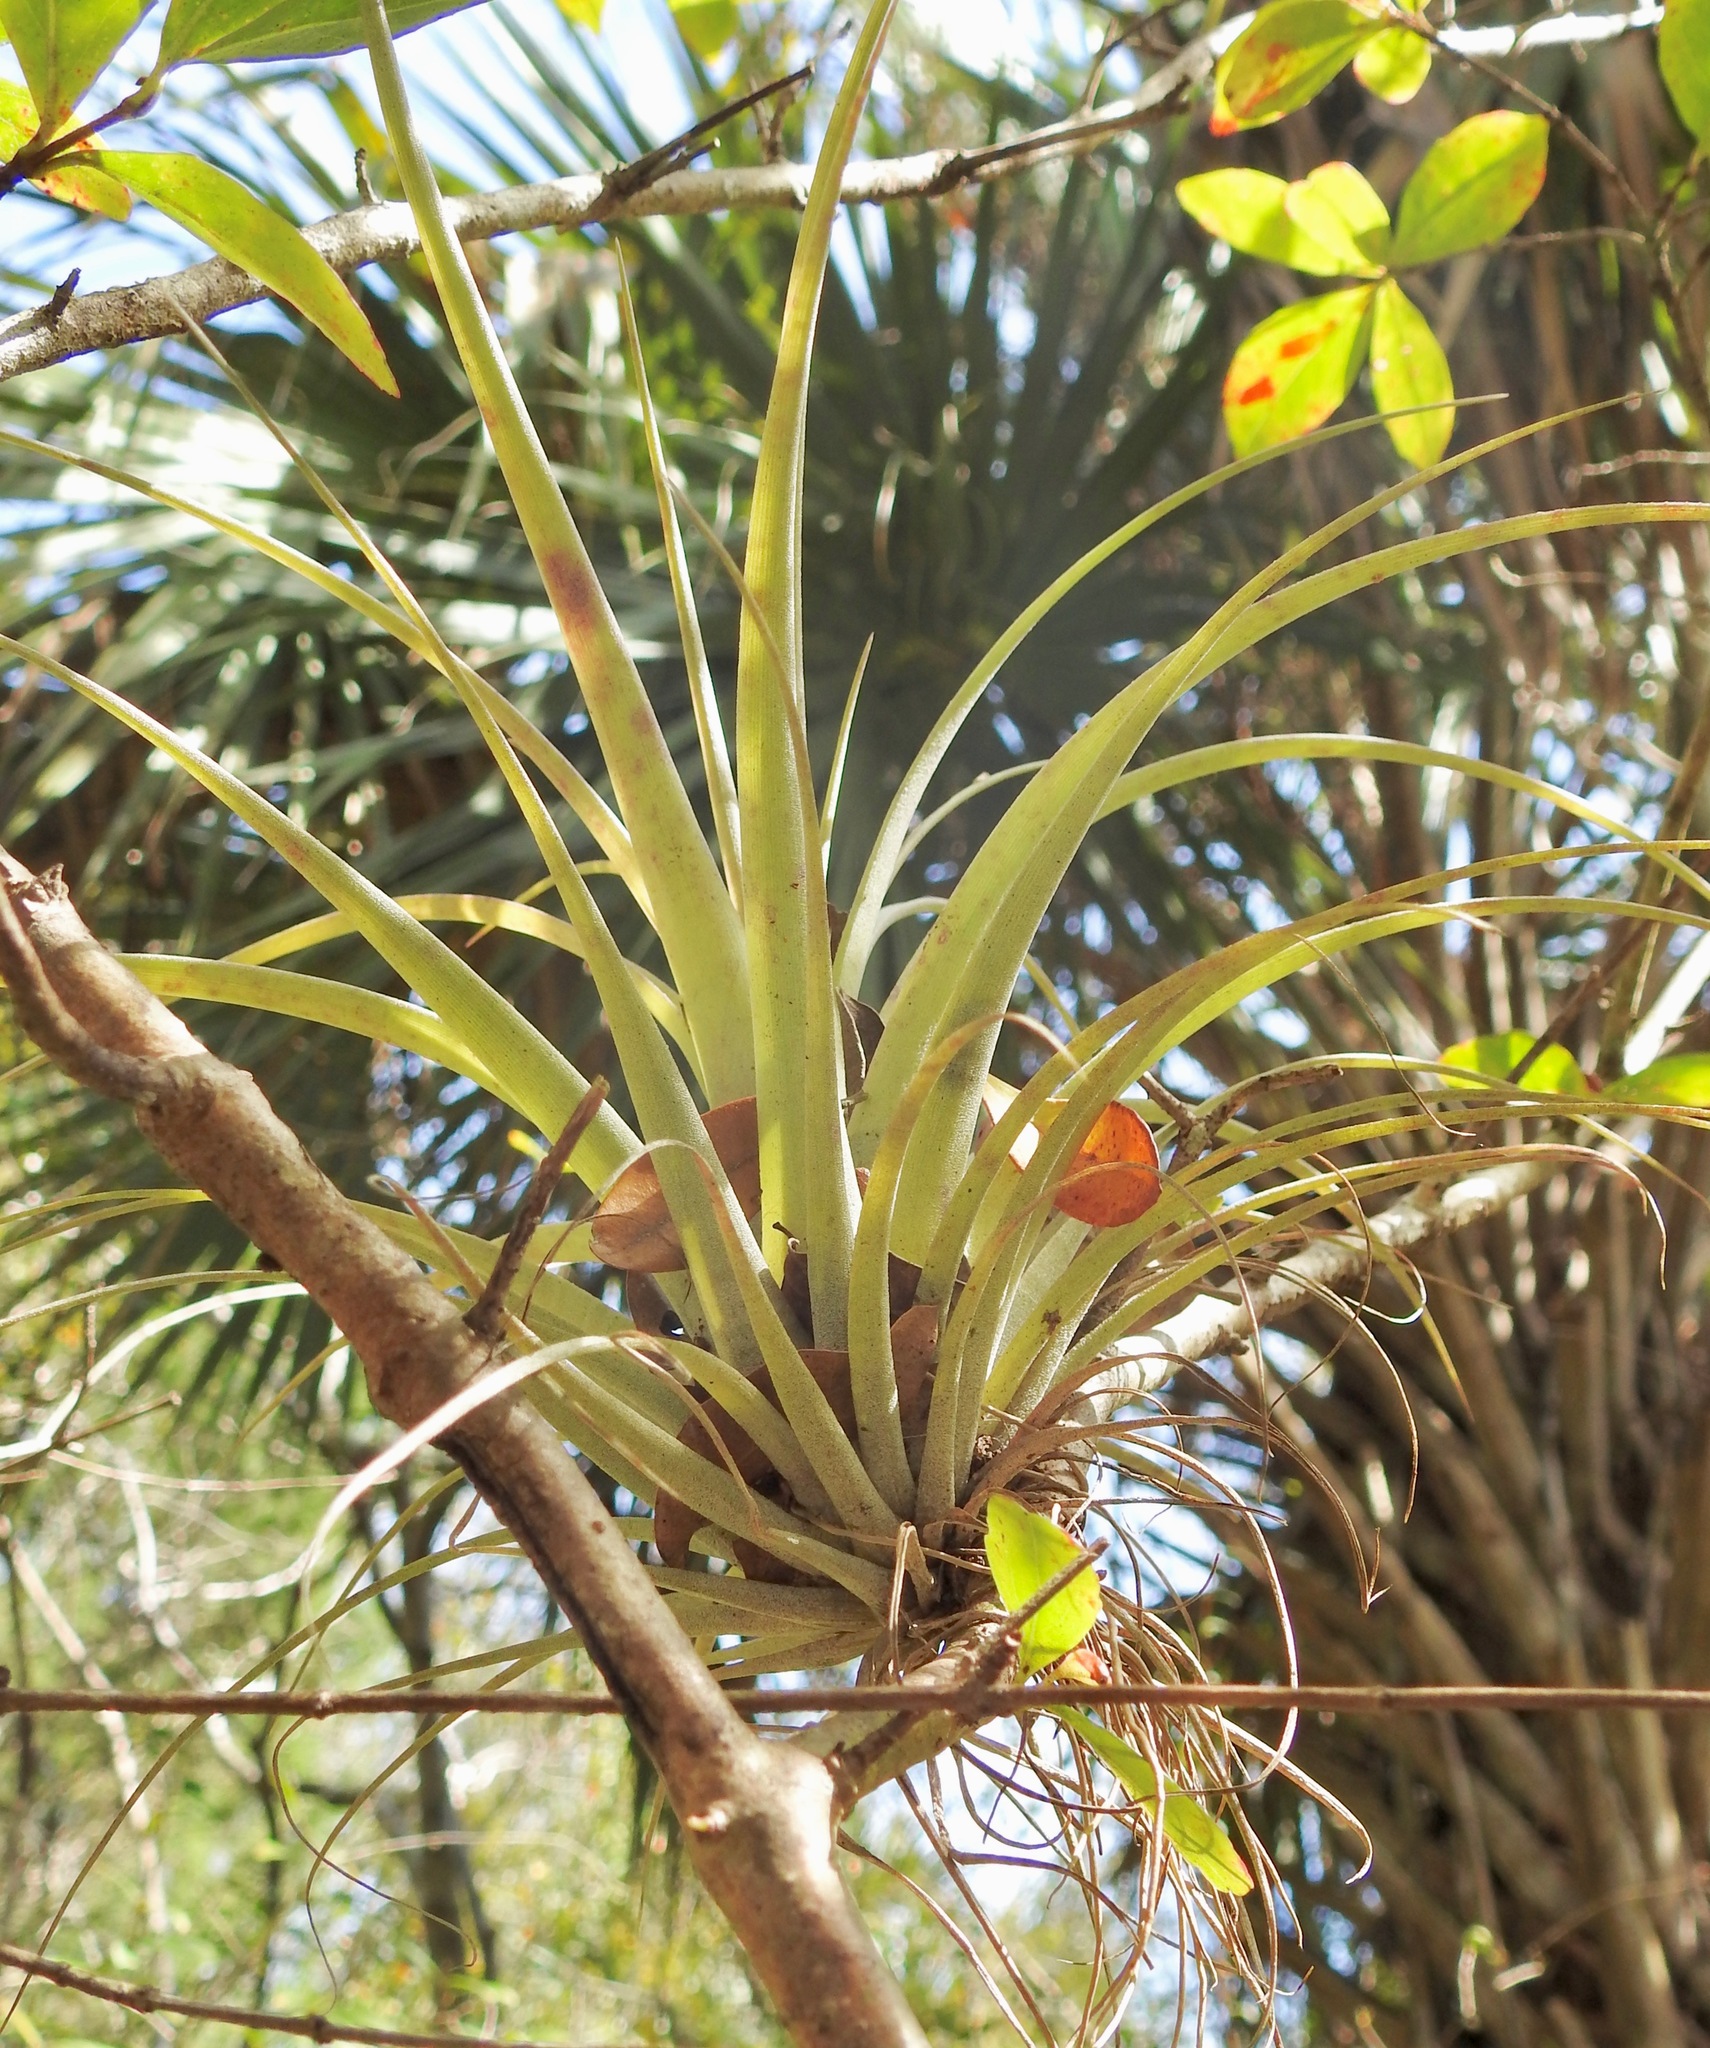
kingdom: Plantae
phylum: Tracheophyta
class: Liliopsida
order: Poales
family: Bromeliaceae
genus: Tillandsia
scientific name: Tillandsia utriculata
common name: Wild pine
